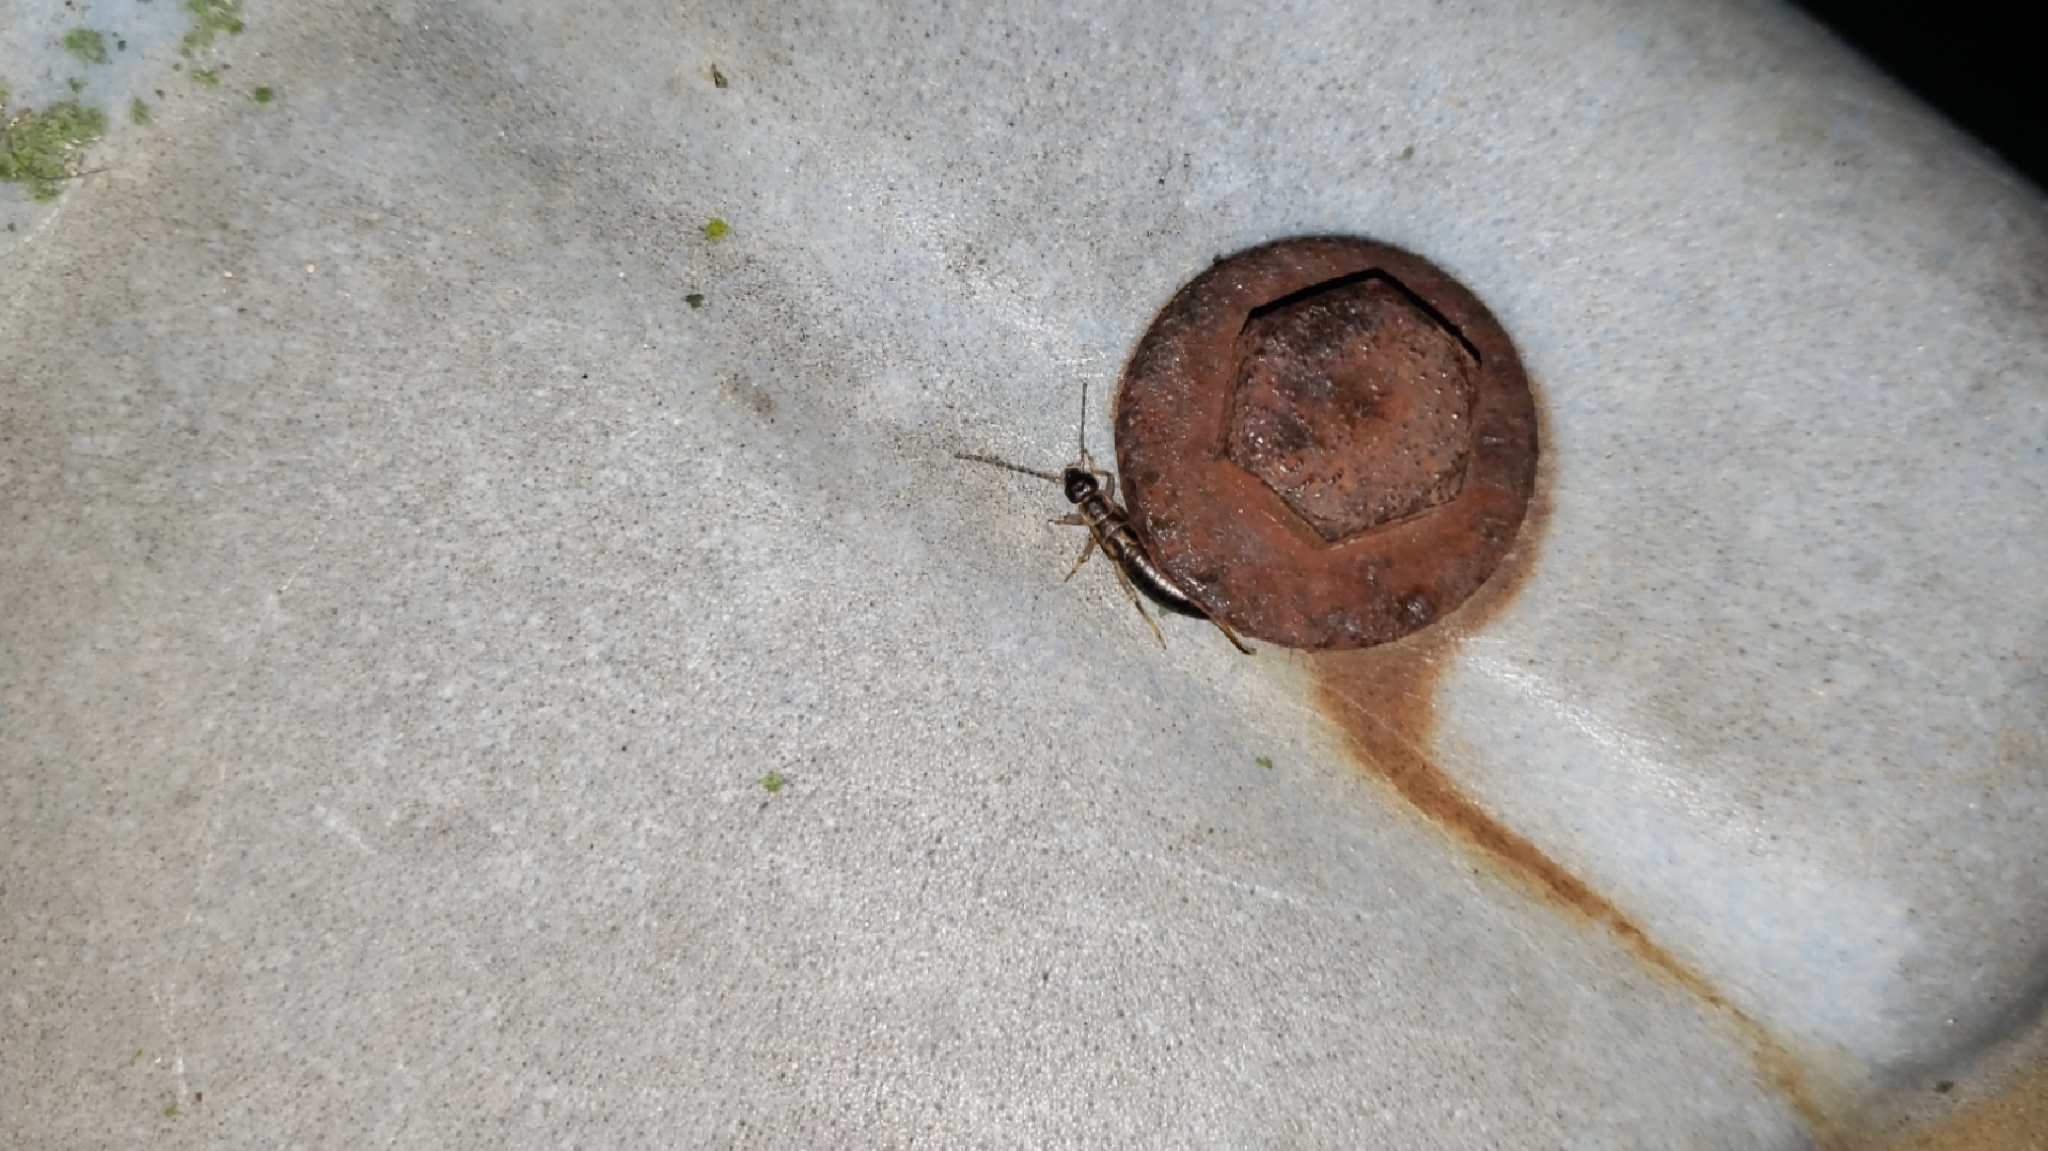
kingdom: Animalia
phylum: Arthropoda
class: Insecta
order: Dermaptera
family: Forficulidae
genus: Forficula
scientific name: Forficula
